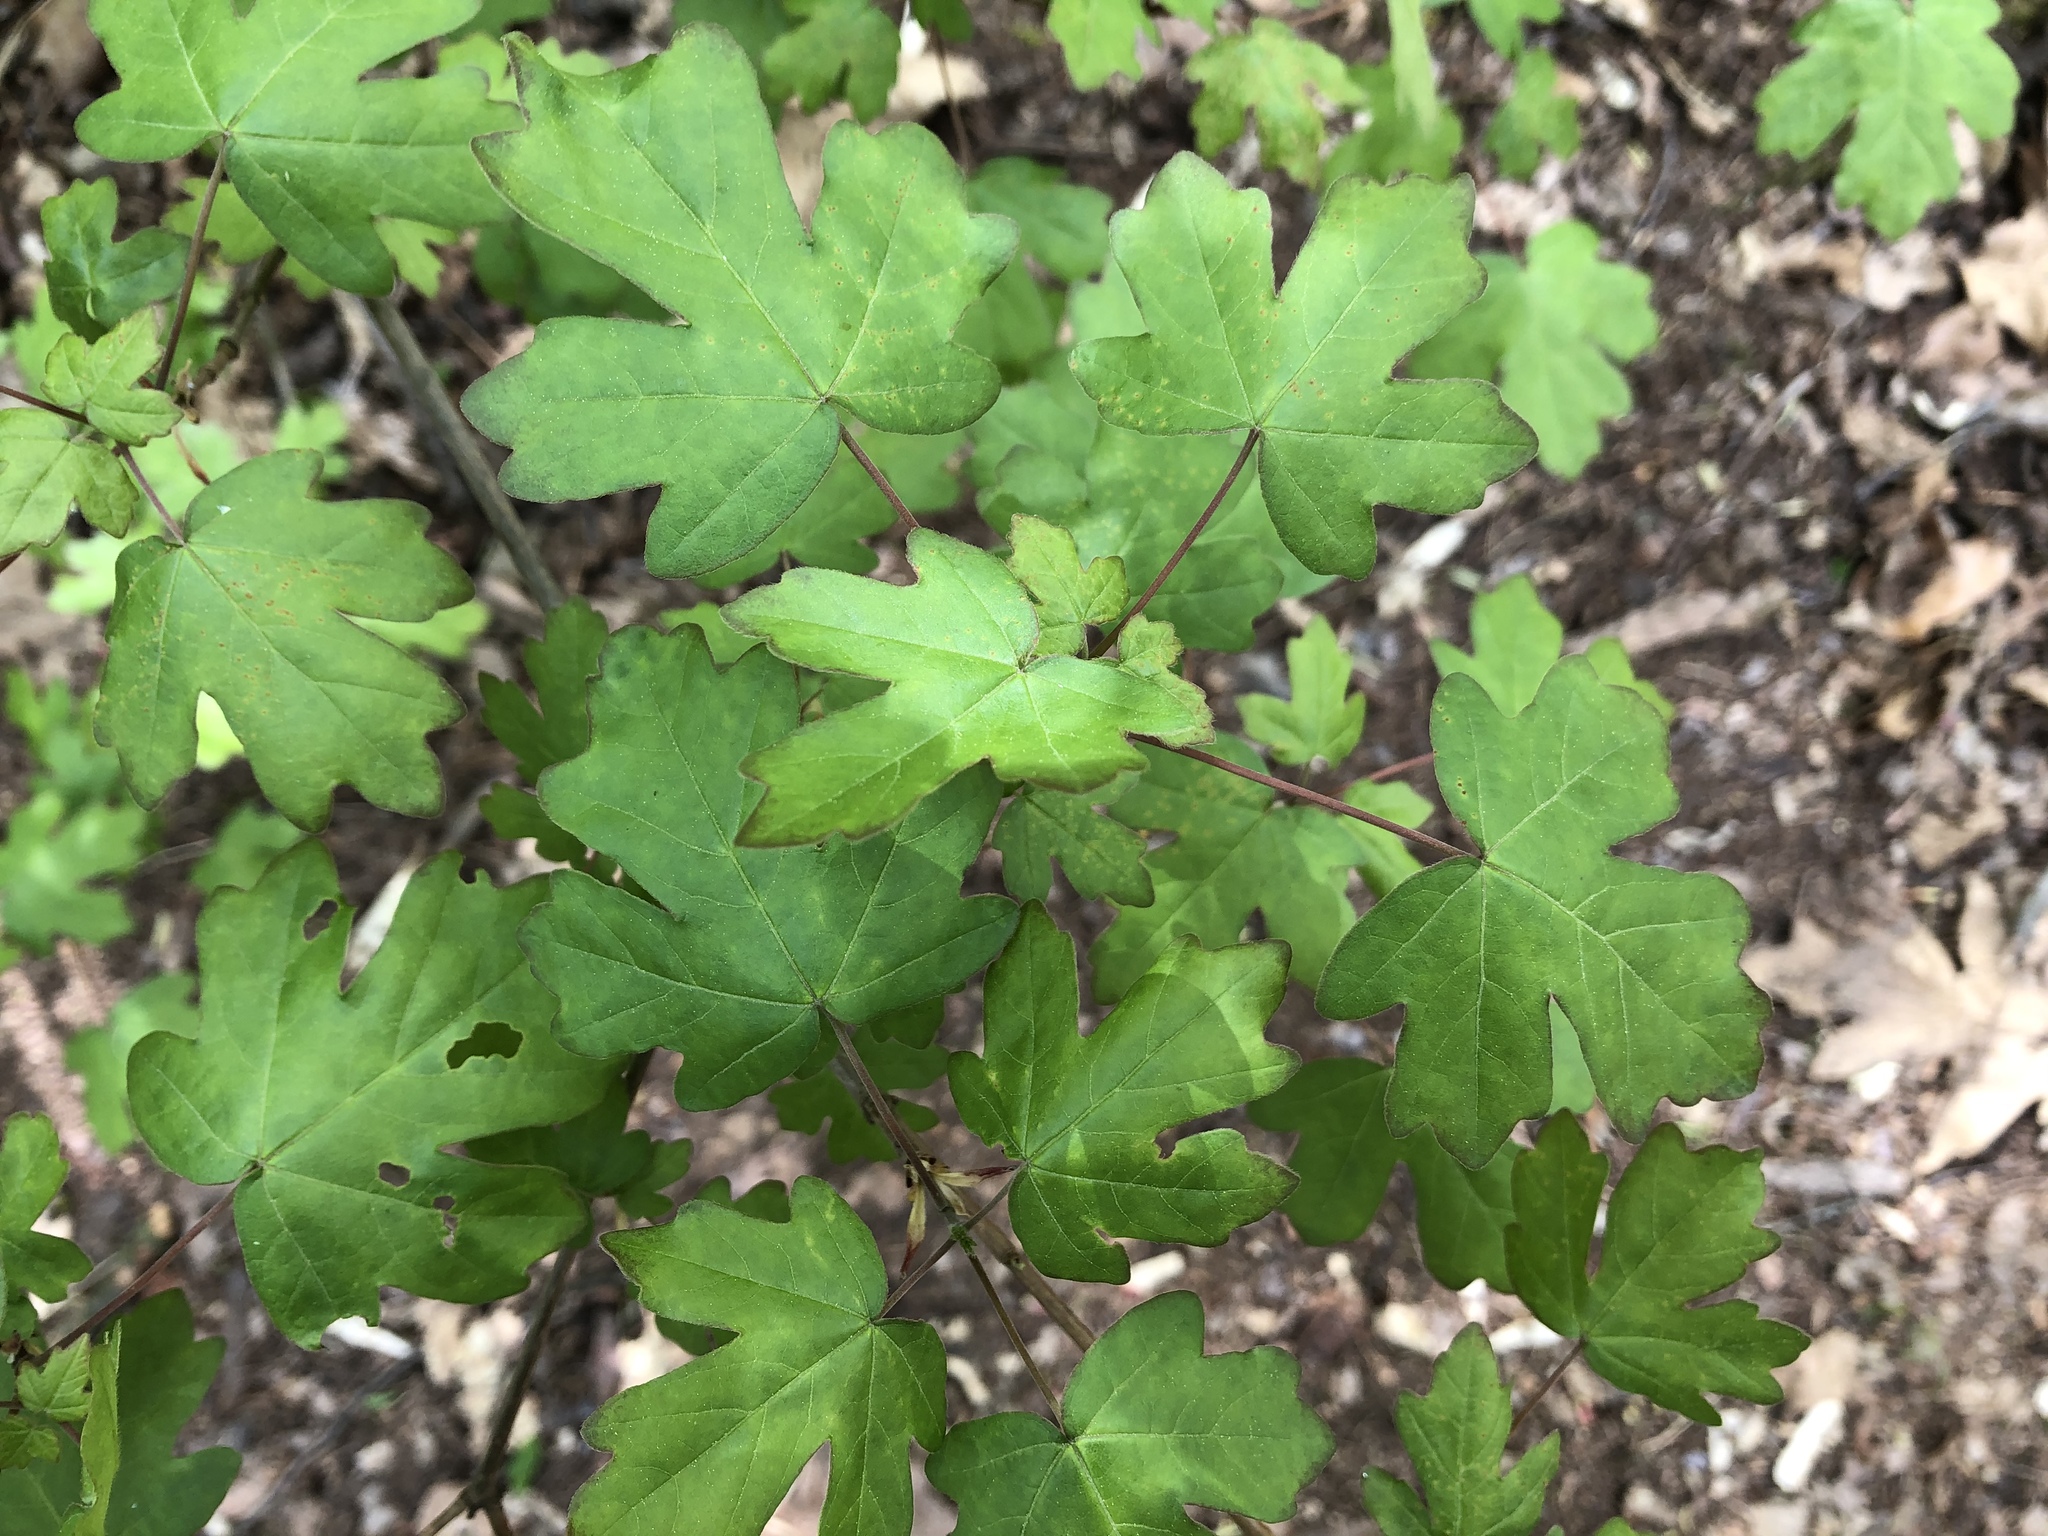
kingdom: Plantae
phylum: Tracheophyta
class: Magnoliopsida
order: Sapindales
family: Sapindaceae
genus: Acer
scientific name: Acer campestre
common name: Field maple
